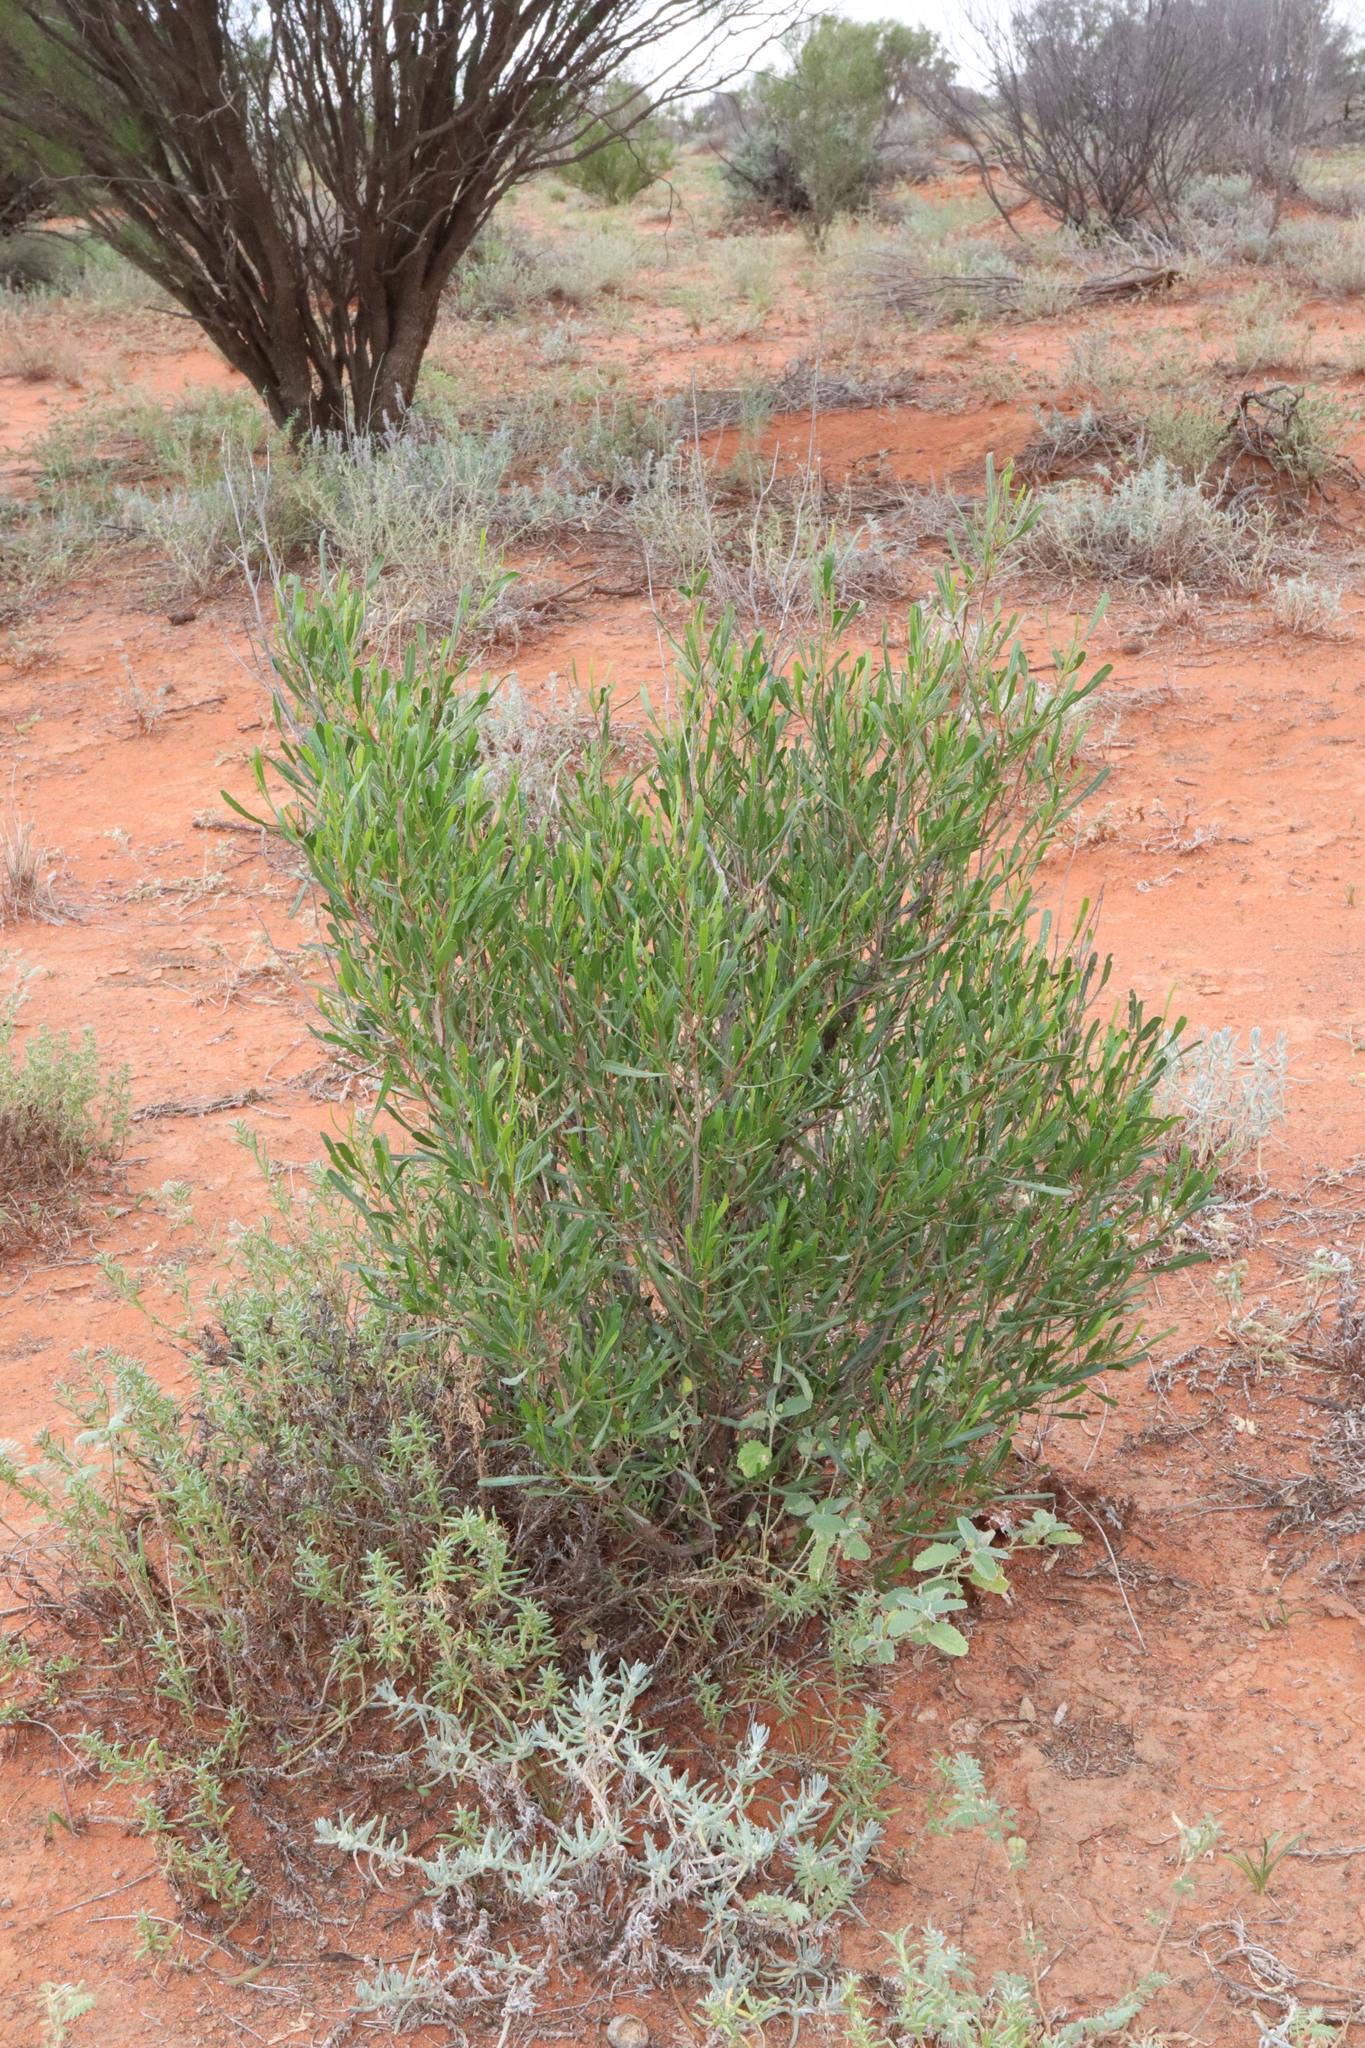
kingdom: Plantae
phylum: Tracheophyta
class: Magnoliopsida
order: Sapindales
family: Sapindaceae
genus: Dodonaea
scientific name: Dodonaea viscosa
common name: Hopbush
